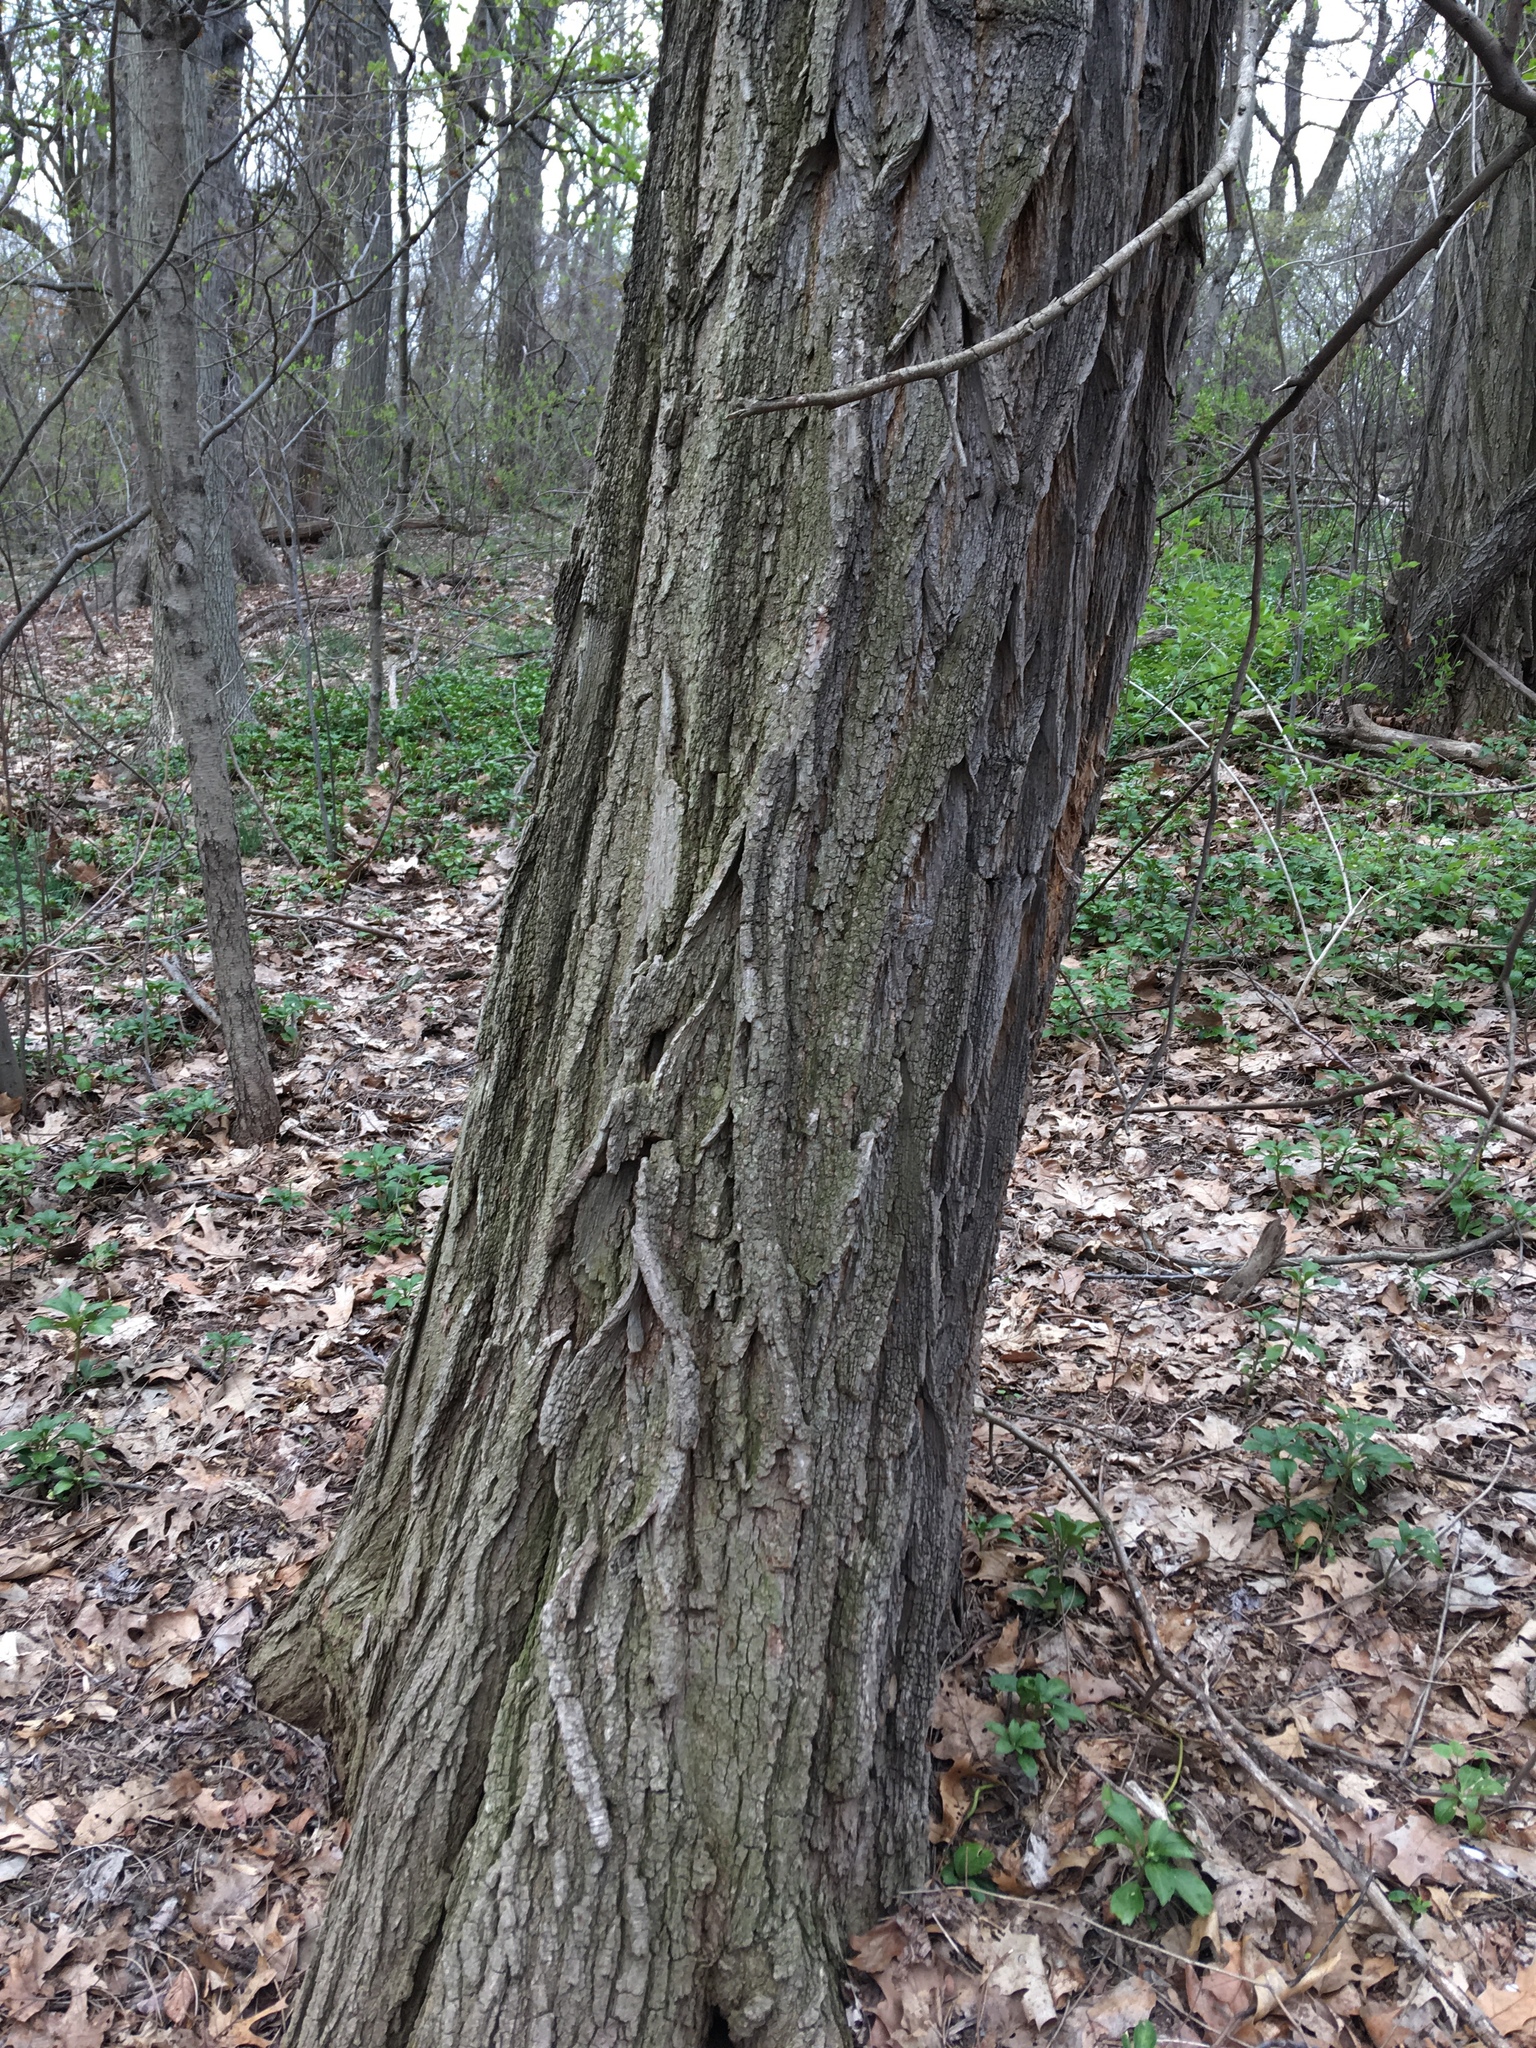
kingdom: Plantae
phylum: Tracheophyta
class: Magnoliopsida
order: Fabales
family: Fabaceae
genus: Robinia
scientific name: Robinia pseudoacacia
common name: Black locust
